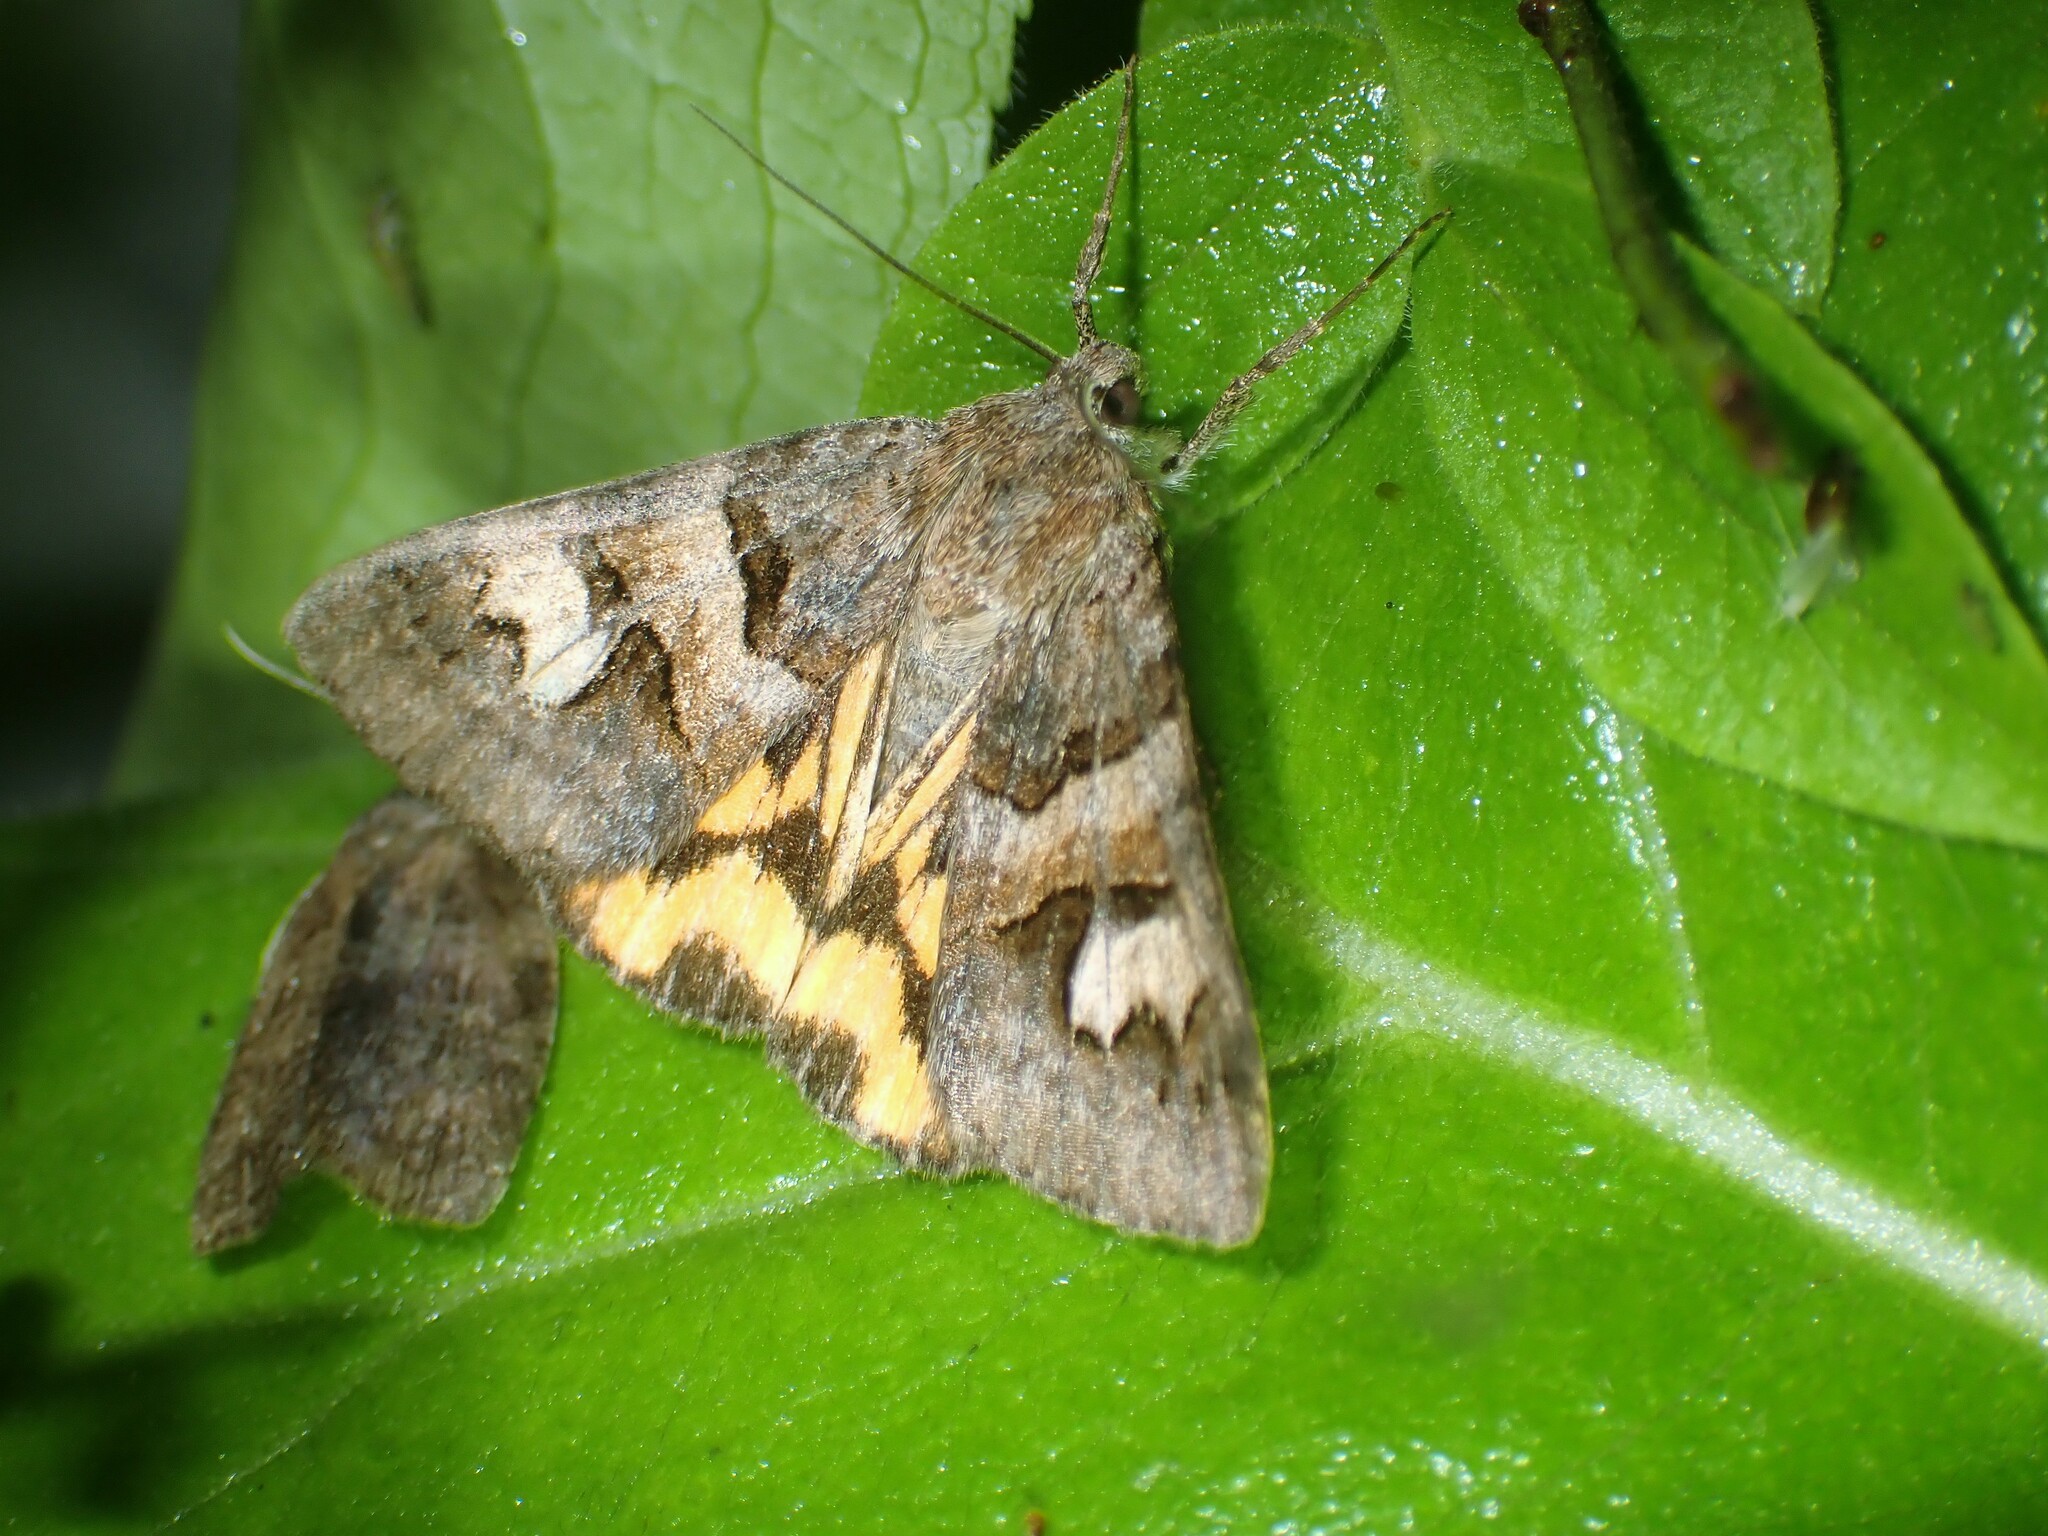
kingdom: Animalia
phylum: Arthropoda
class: Insecta
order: Lepidoptera
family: Erebidae
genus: Drasteria
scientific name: Drasteria adumbrata
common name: Shadowy arches
